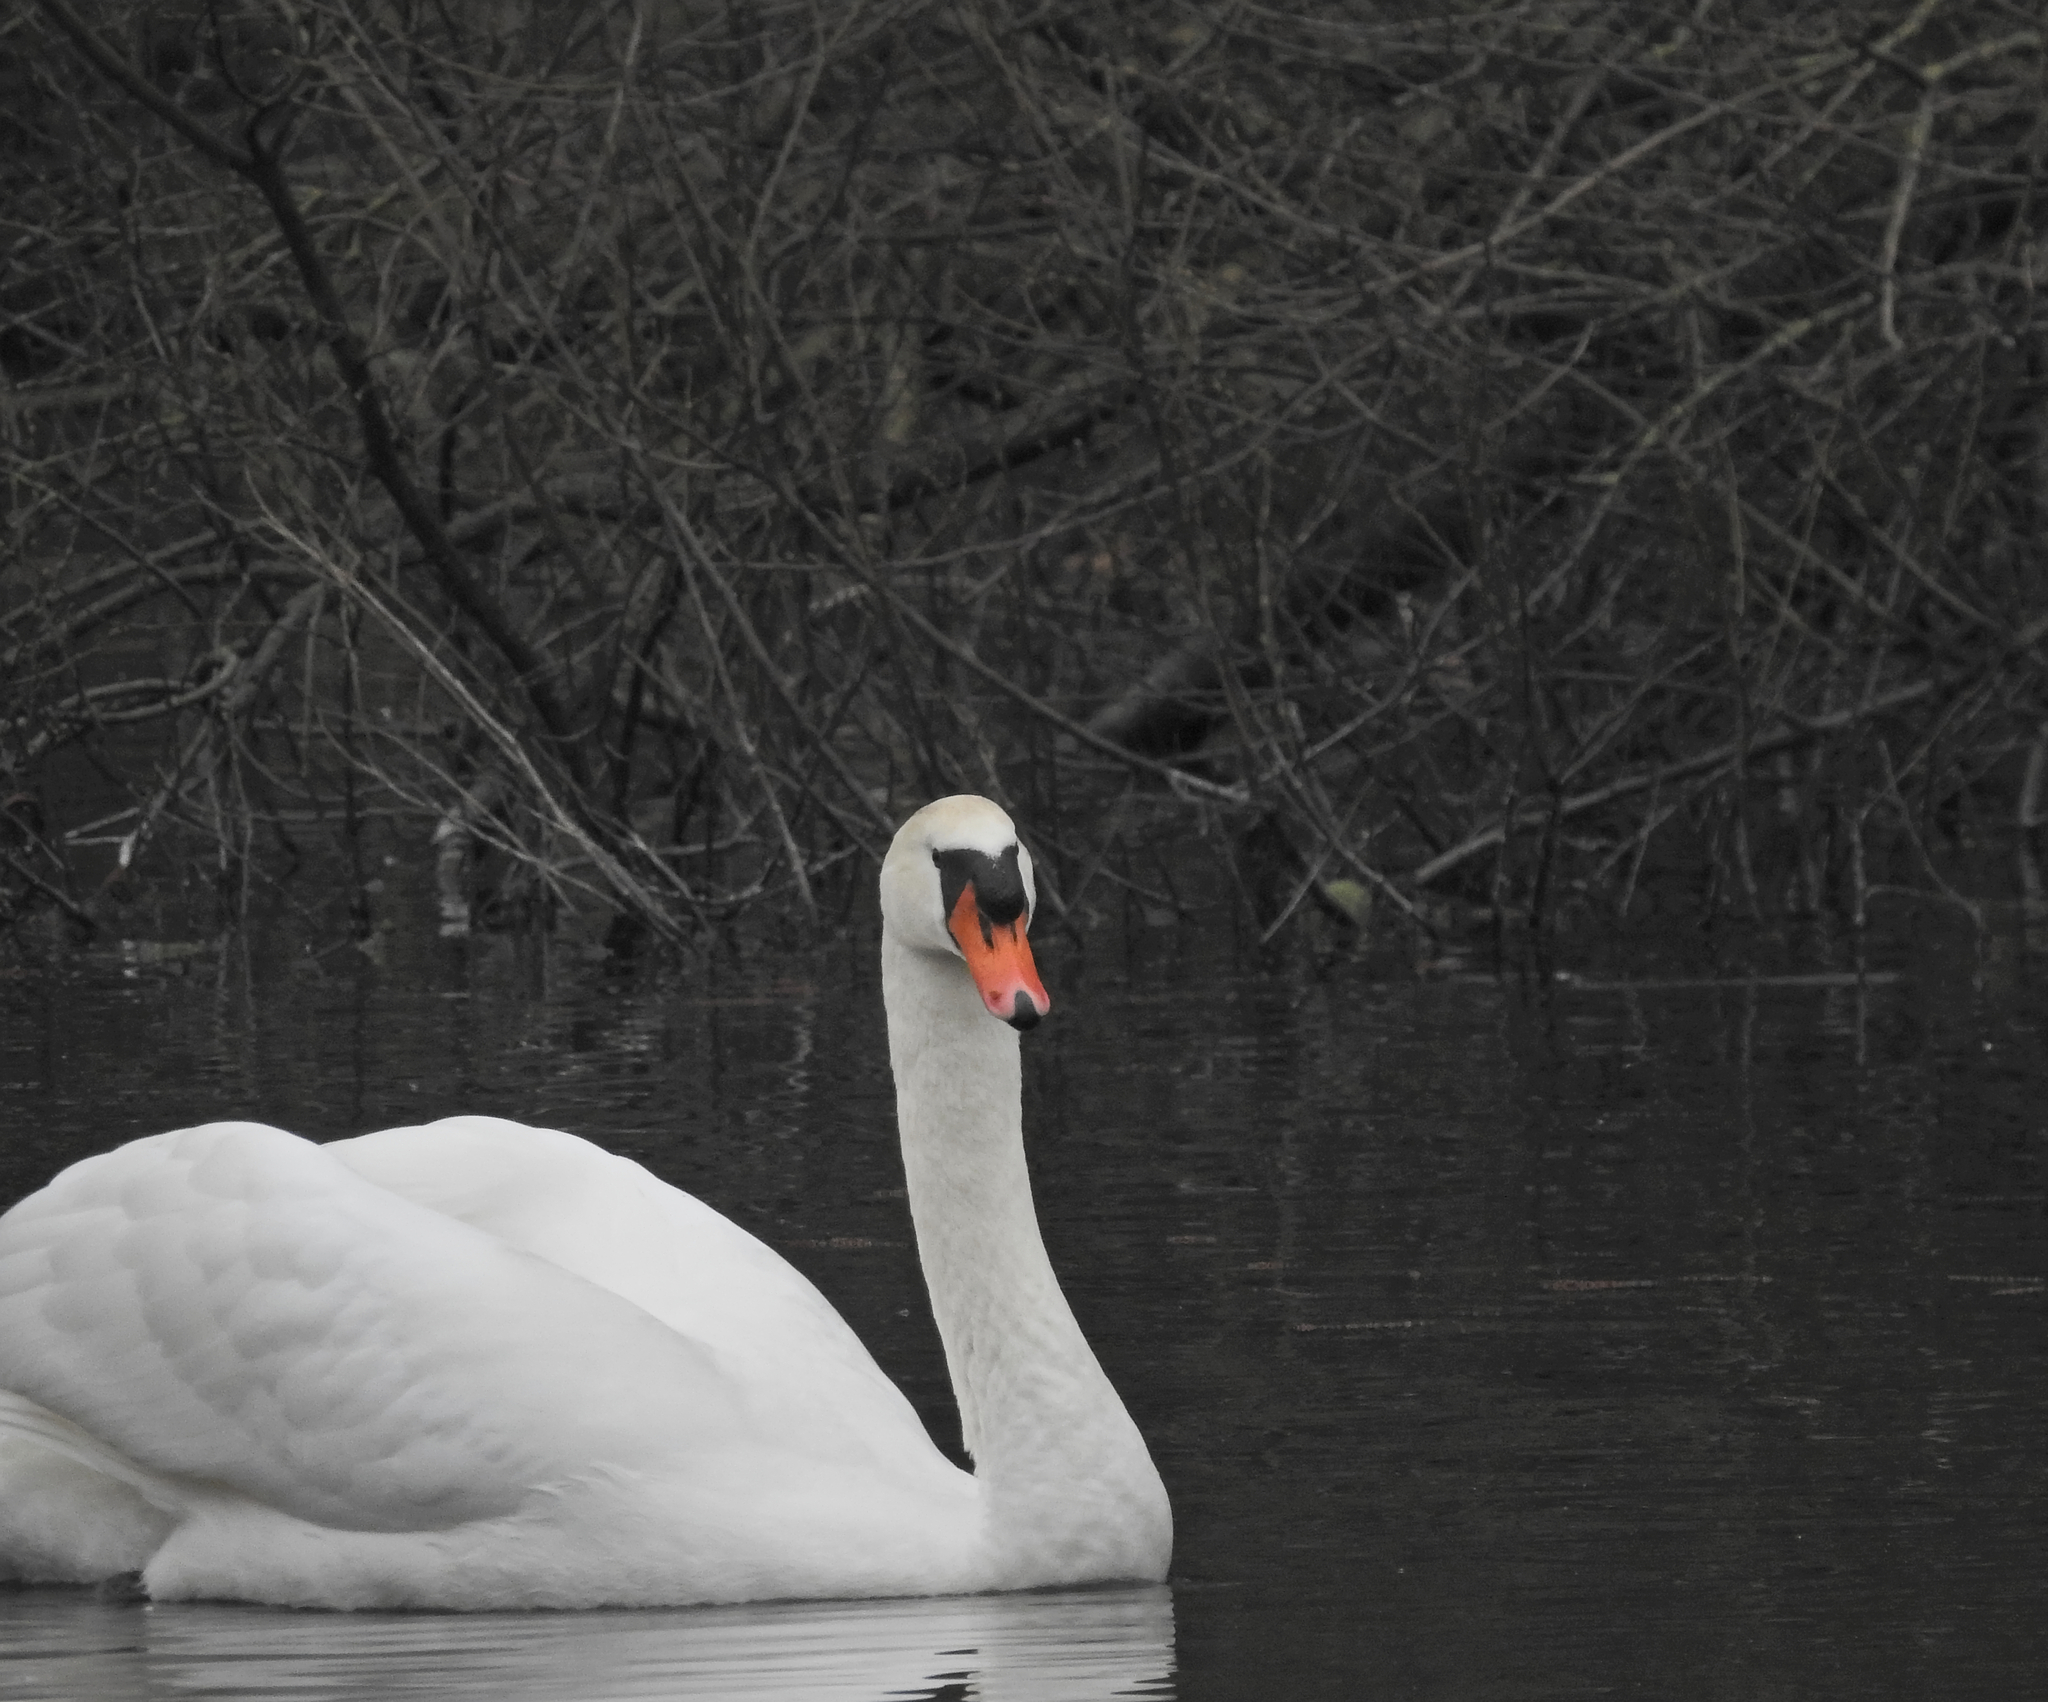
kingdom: Animalia
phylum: Chordata
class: Aves
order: Anseriformes
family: Anatidae
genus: Cygnus
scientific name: Cygnus olor
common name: Mute swan
